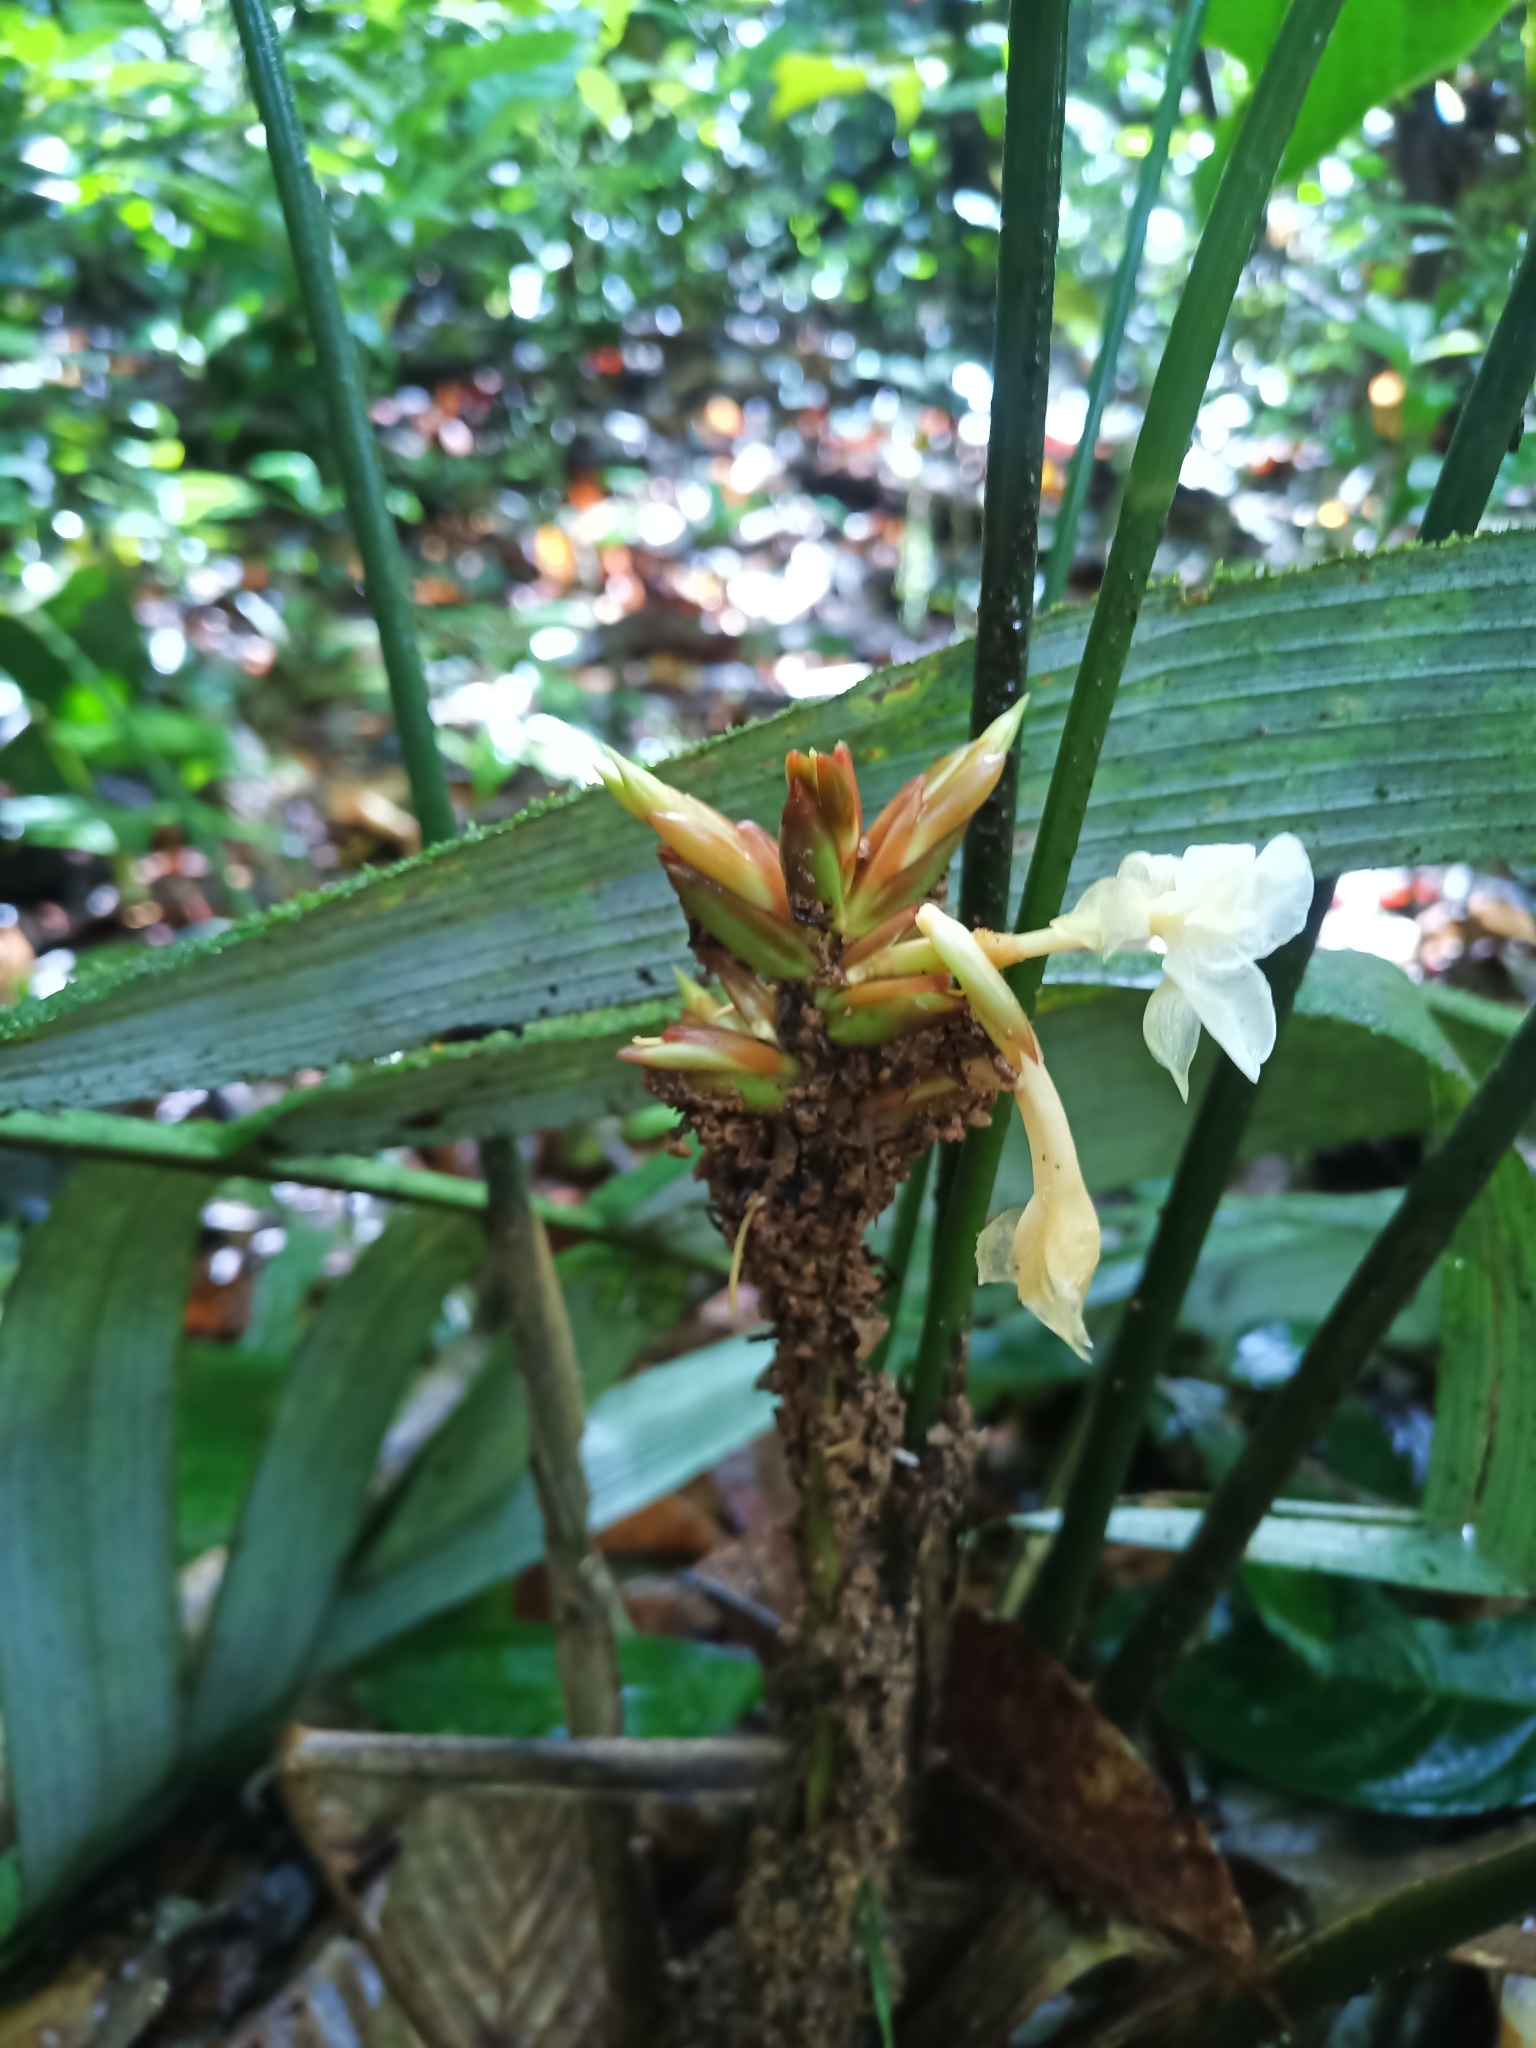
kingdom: Plantae
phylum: Tracheophyta
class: Liliopsida
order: Zingiberales
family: Marantaceae
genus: Goeppertia
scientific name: Goeppertia elliptica
